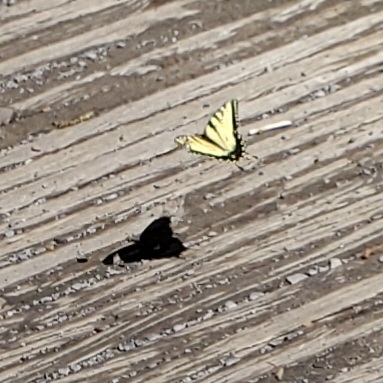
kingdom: Animalia
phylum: Arthropoda
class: Insecta
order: Lepidoptera
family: Papilionidae
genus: Papilio
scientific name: Papilio glaucus
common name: Tiger swallowtail
